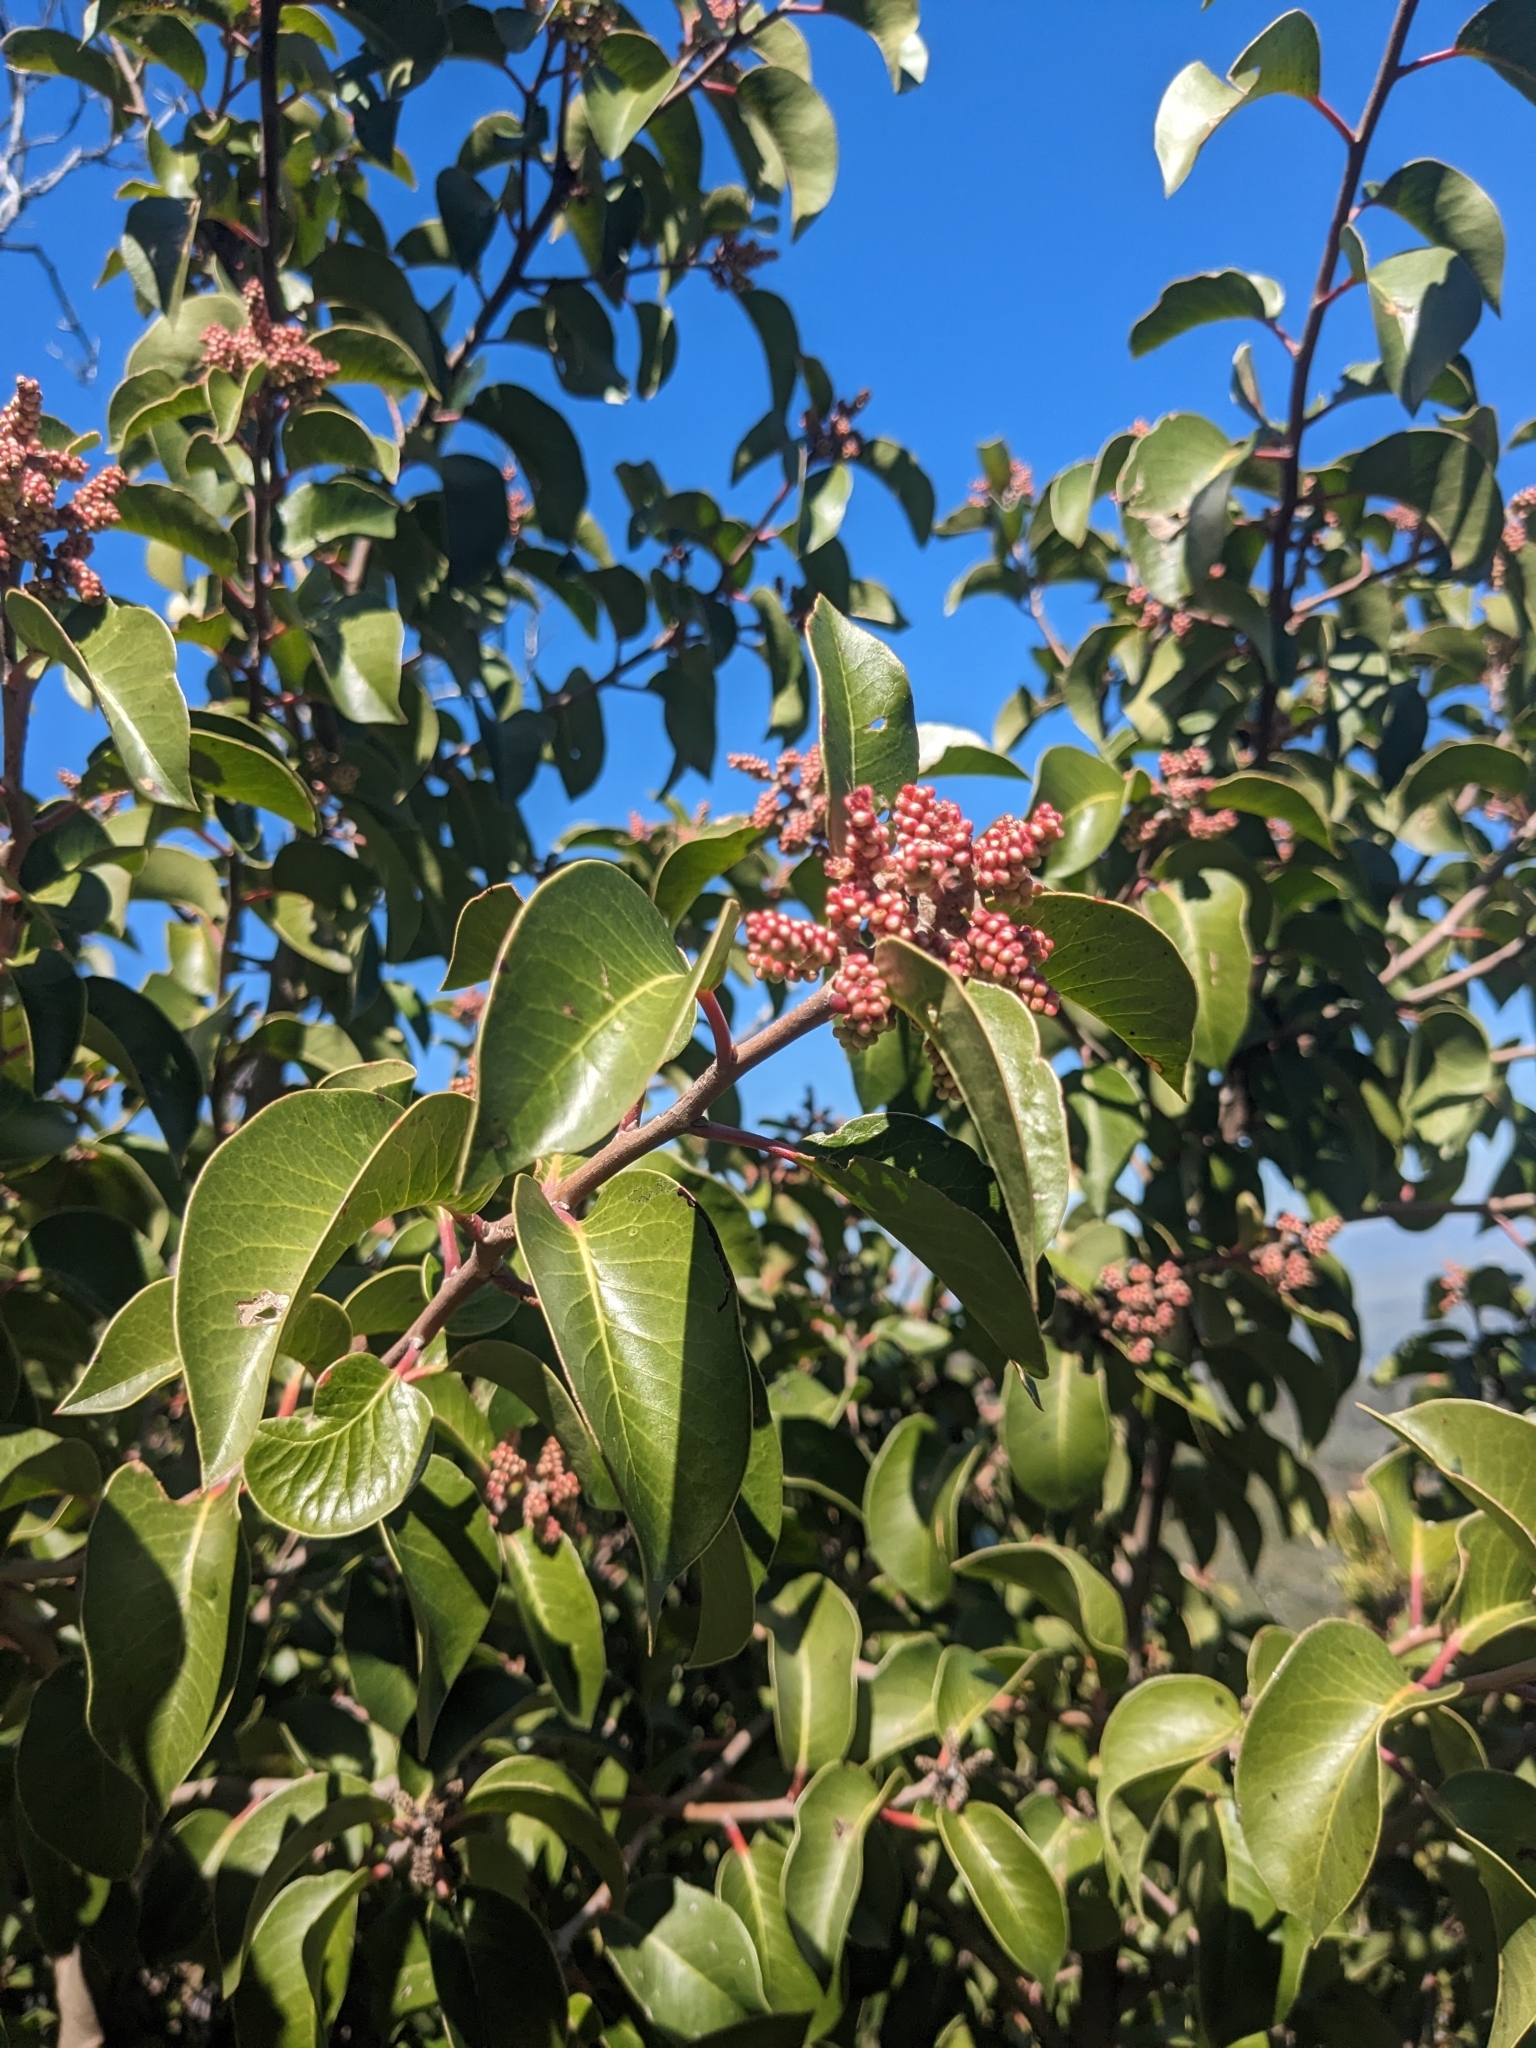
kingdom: Plantae
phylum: Tracheophyta
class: Magnoliopsida
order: Sapindales
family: Anacardiaceae
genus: Rhus
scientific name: Rhus ovata
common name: Sugar sumac
